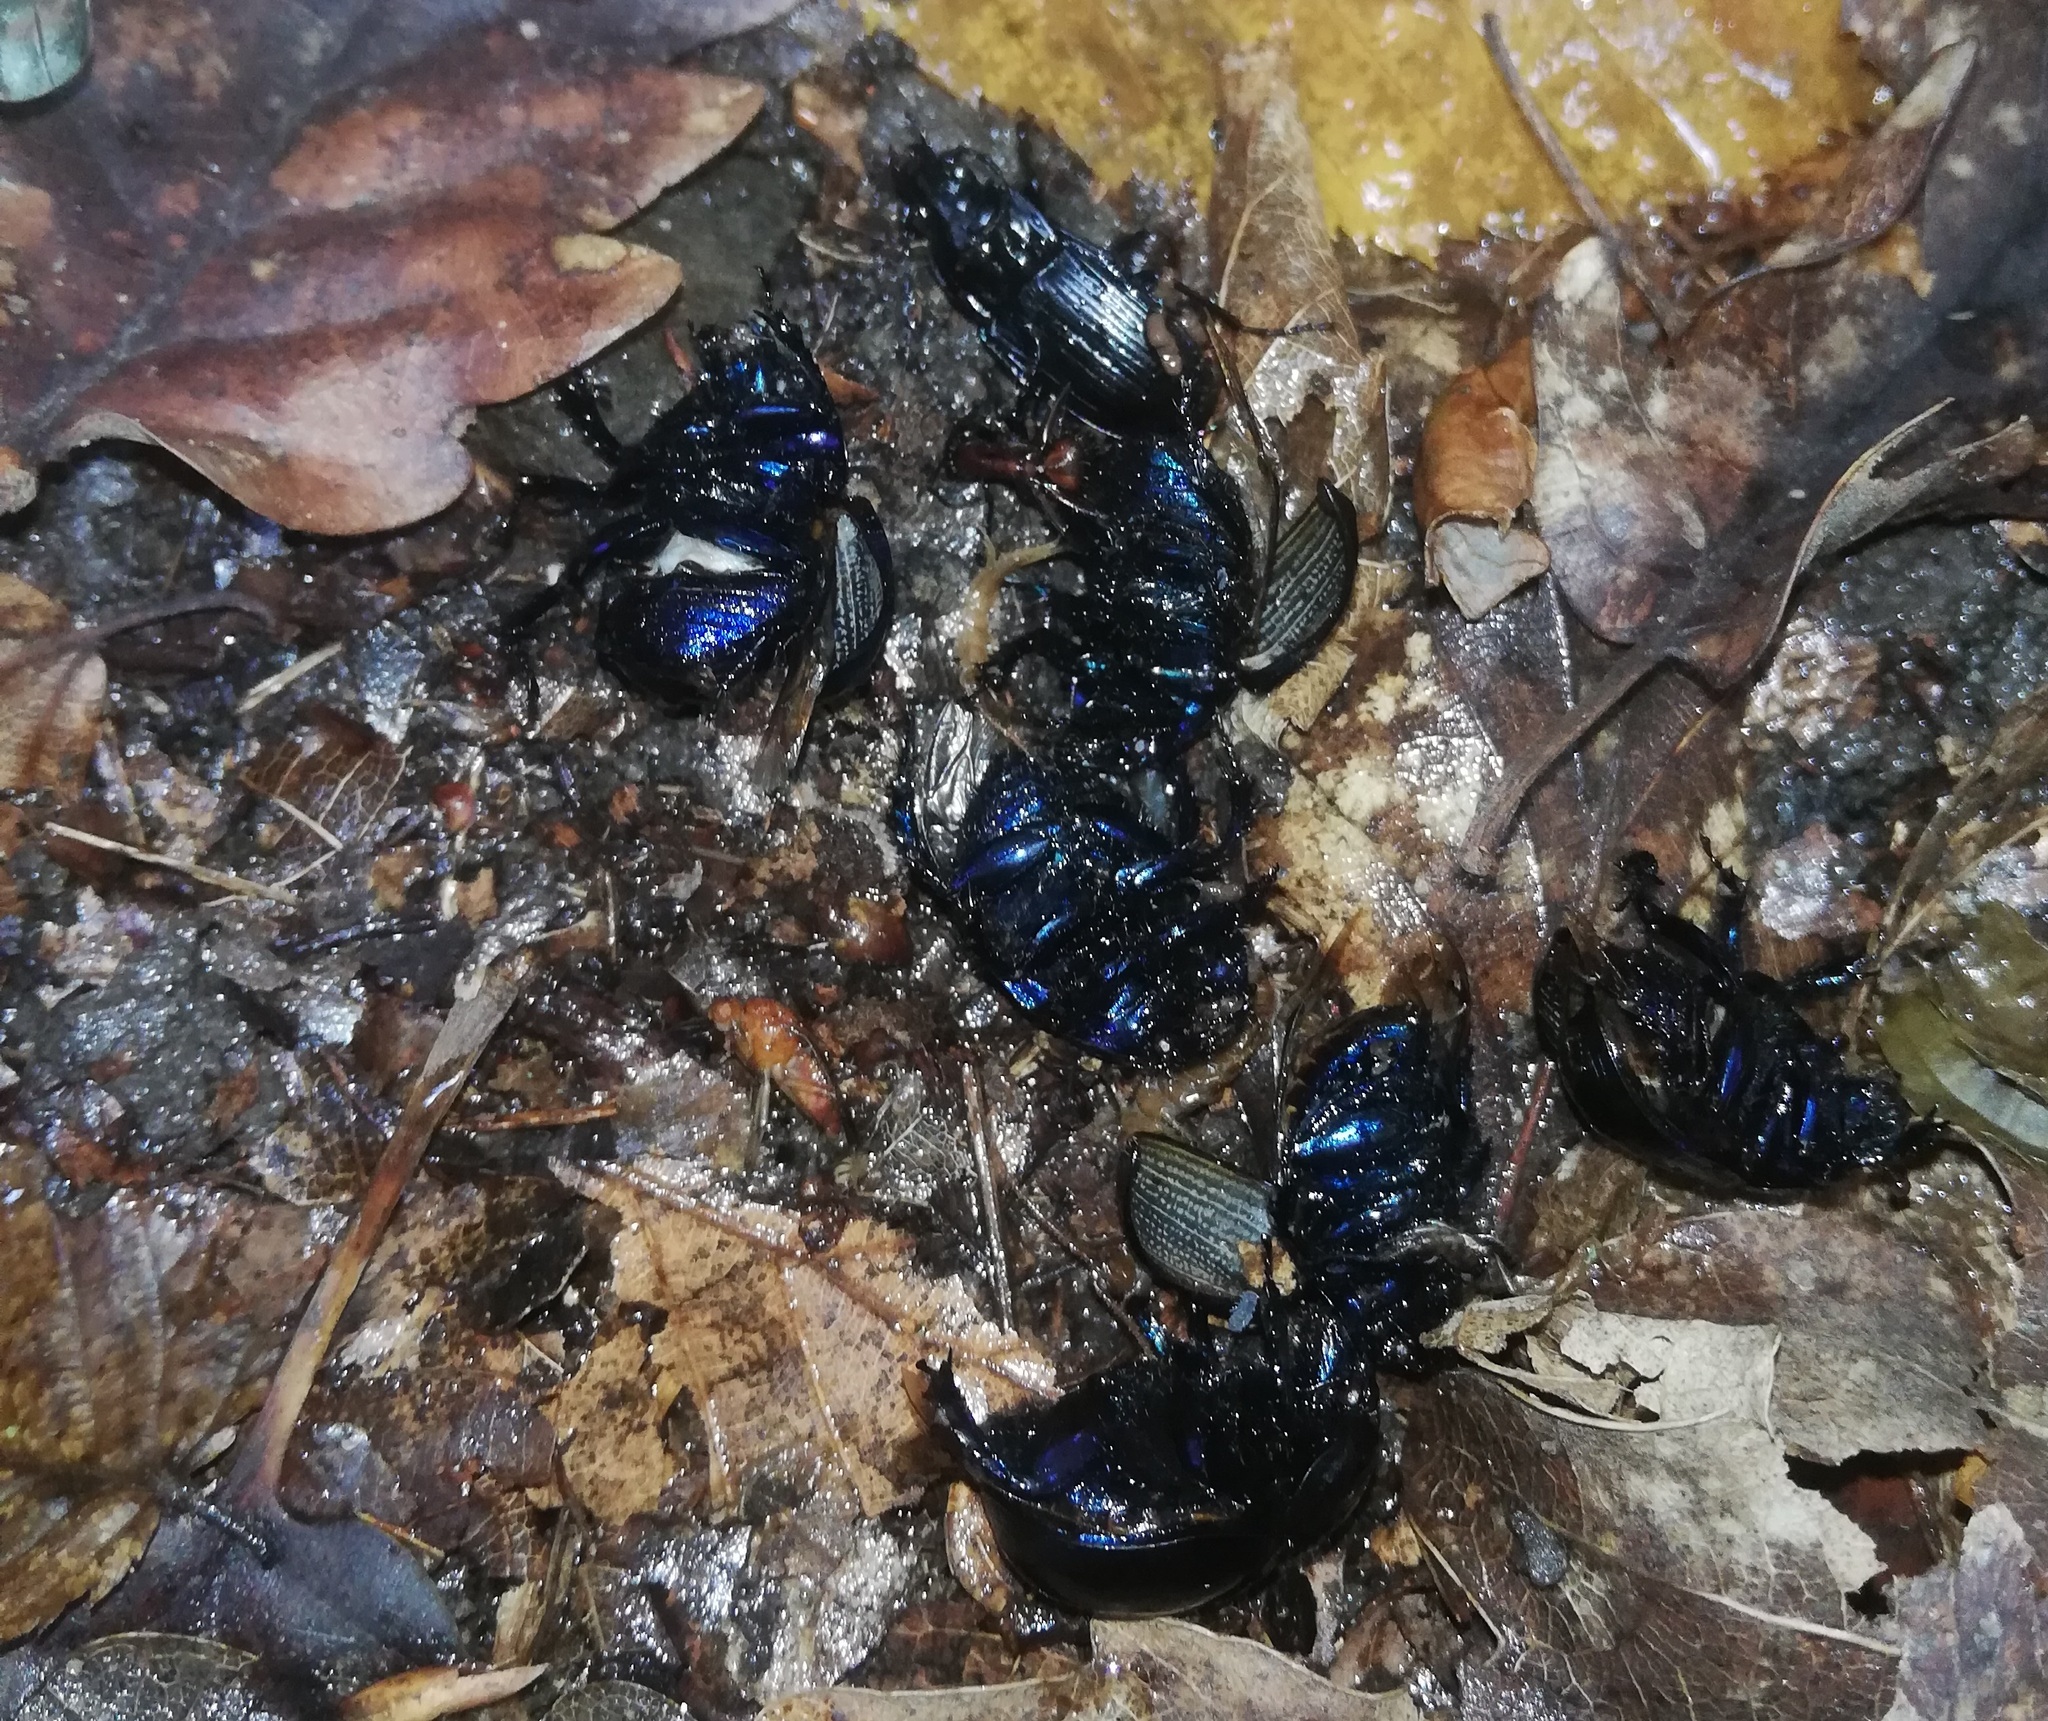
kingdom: Animalia
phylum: Arthropoda
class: Insecta
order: Coleoptera
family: Geotrupidae
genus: Anoplotrupes
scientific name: Anoplotrupes stercorosus
